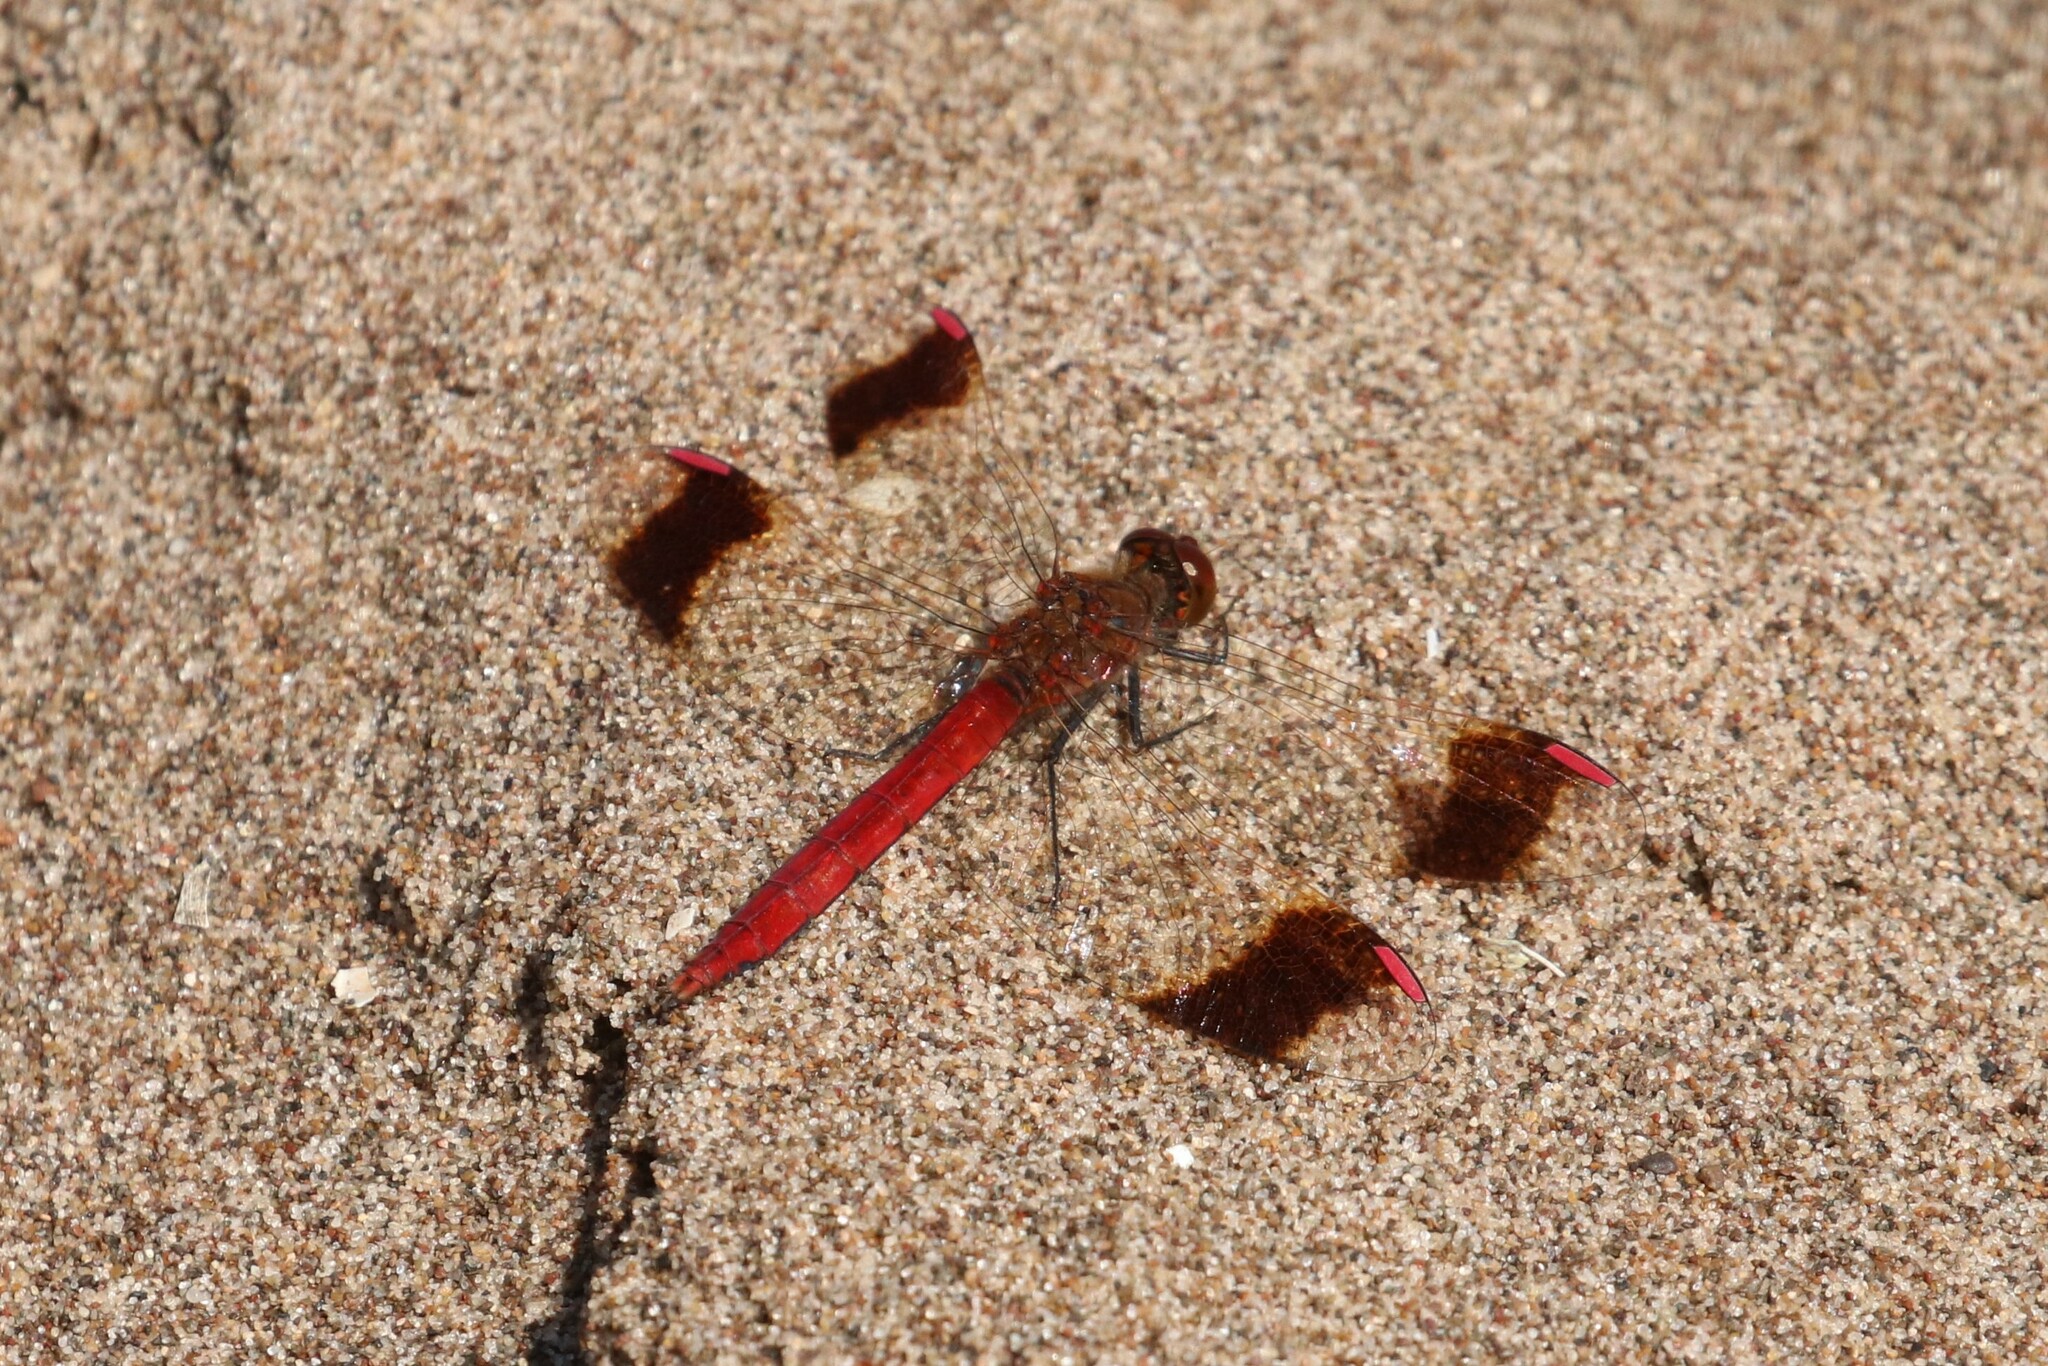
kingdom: Animalia
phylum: Arthropoda
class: Insecta
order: Odonata
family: Libellulidae
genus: Sympetrum
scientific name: Sympetrum pedemontanum
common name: Banded darter
